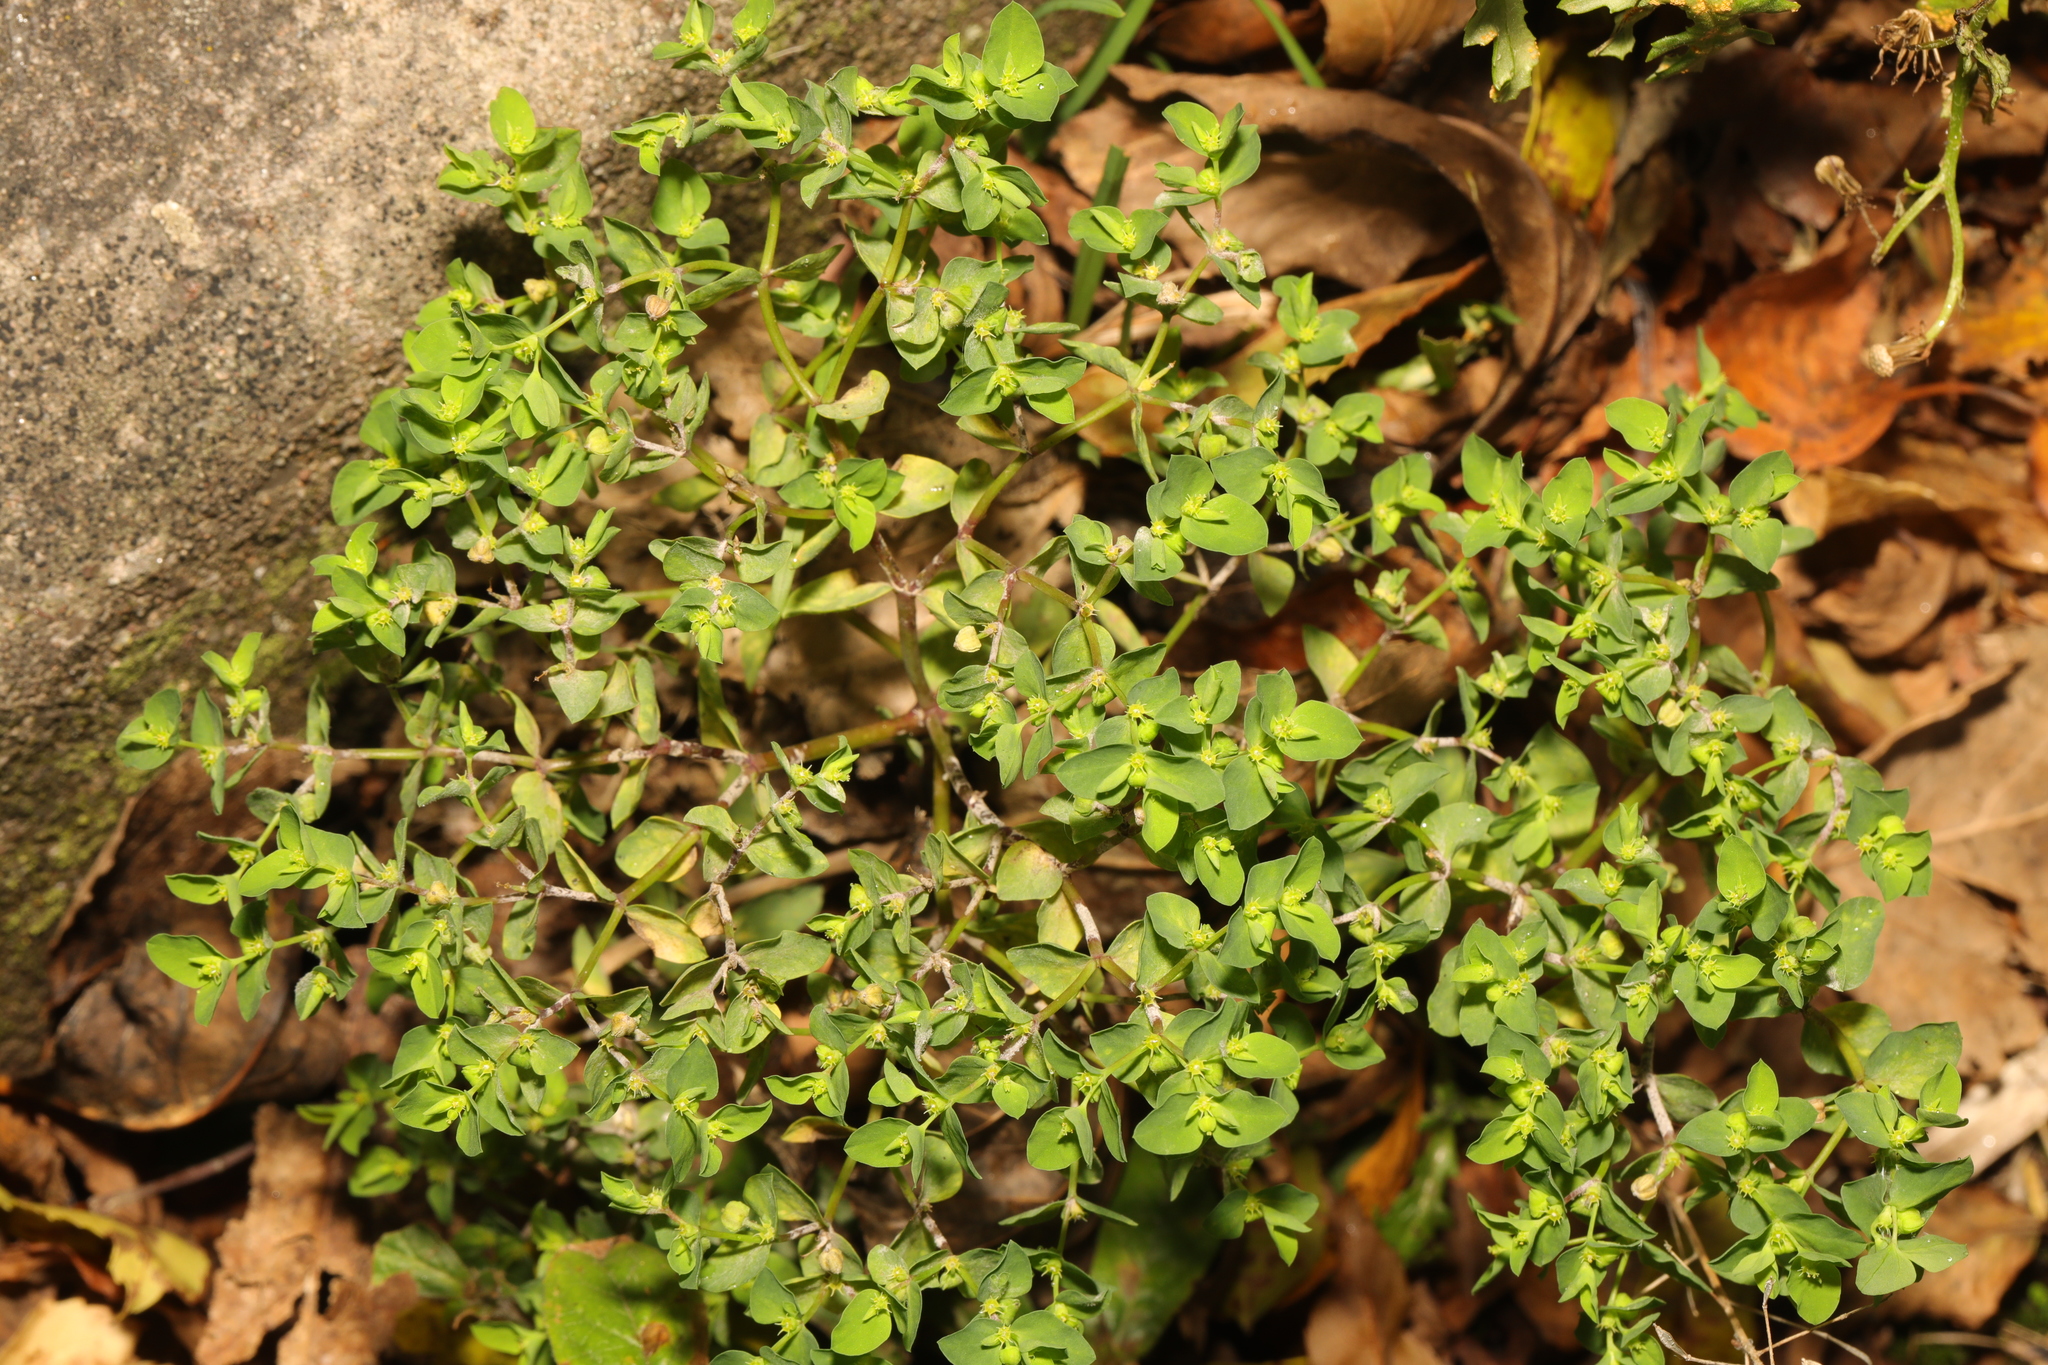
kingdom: Plantae
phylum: Tracheophyta
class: Magnoliopsida
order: Malpighiales
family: Euphorbiaceae
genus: Euphorbia
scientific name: Euphorbia peplus
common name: Petty spurge
